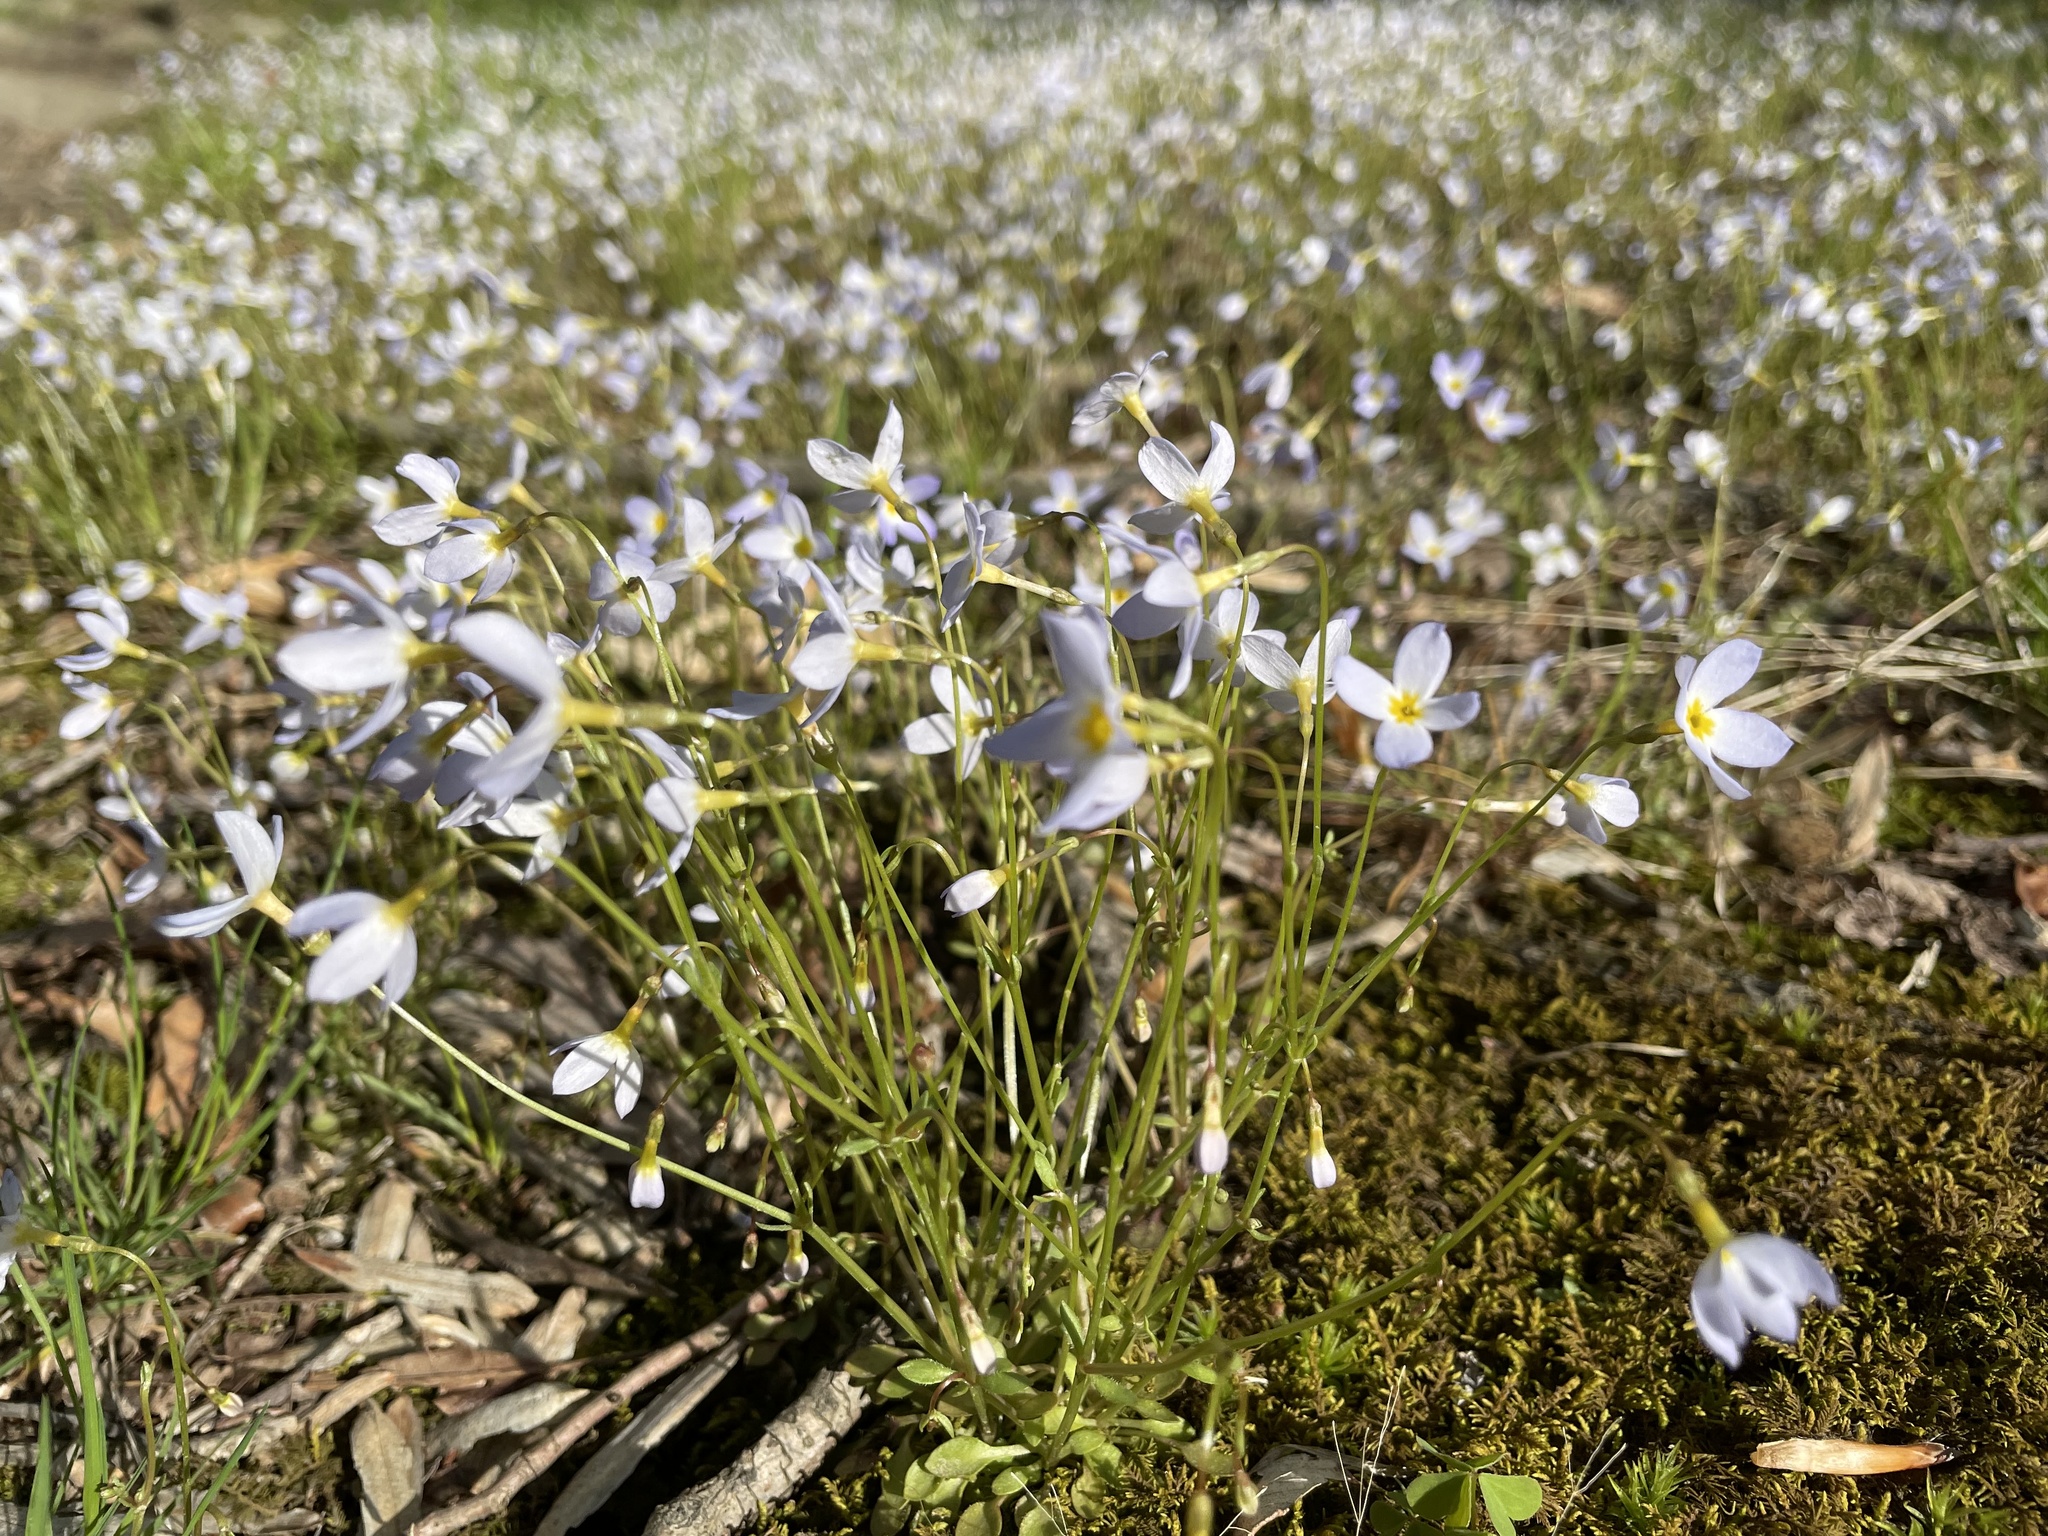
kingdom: Plantae
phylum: Tracheophyta
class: Magnoliopsida
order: Gentianales
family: Rubiaceae
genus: Houstonia
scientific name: Houstonia caerulea
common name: Bluets
